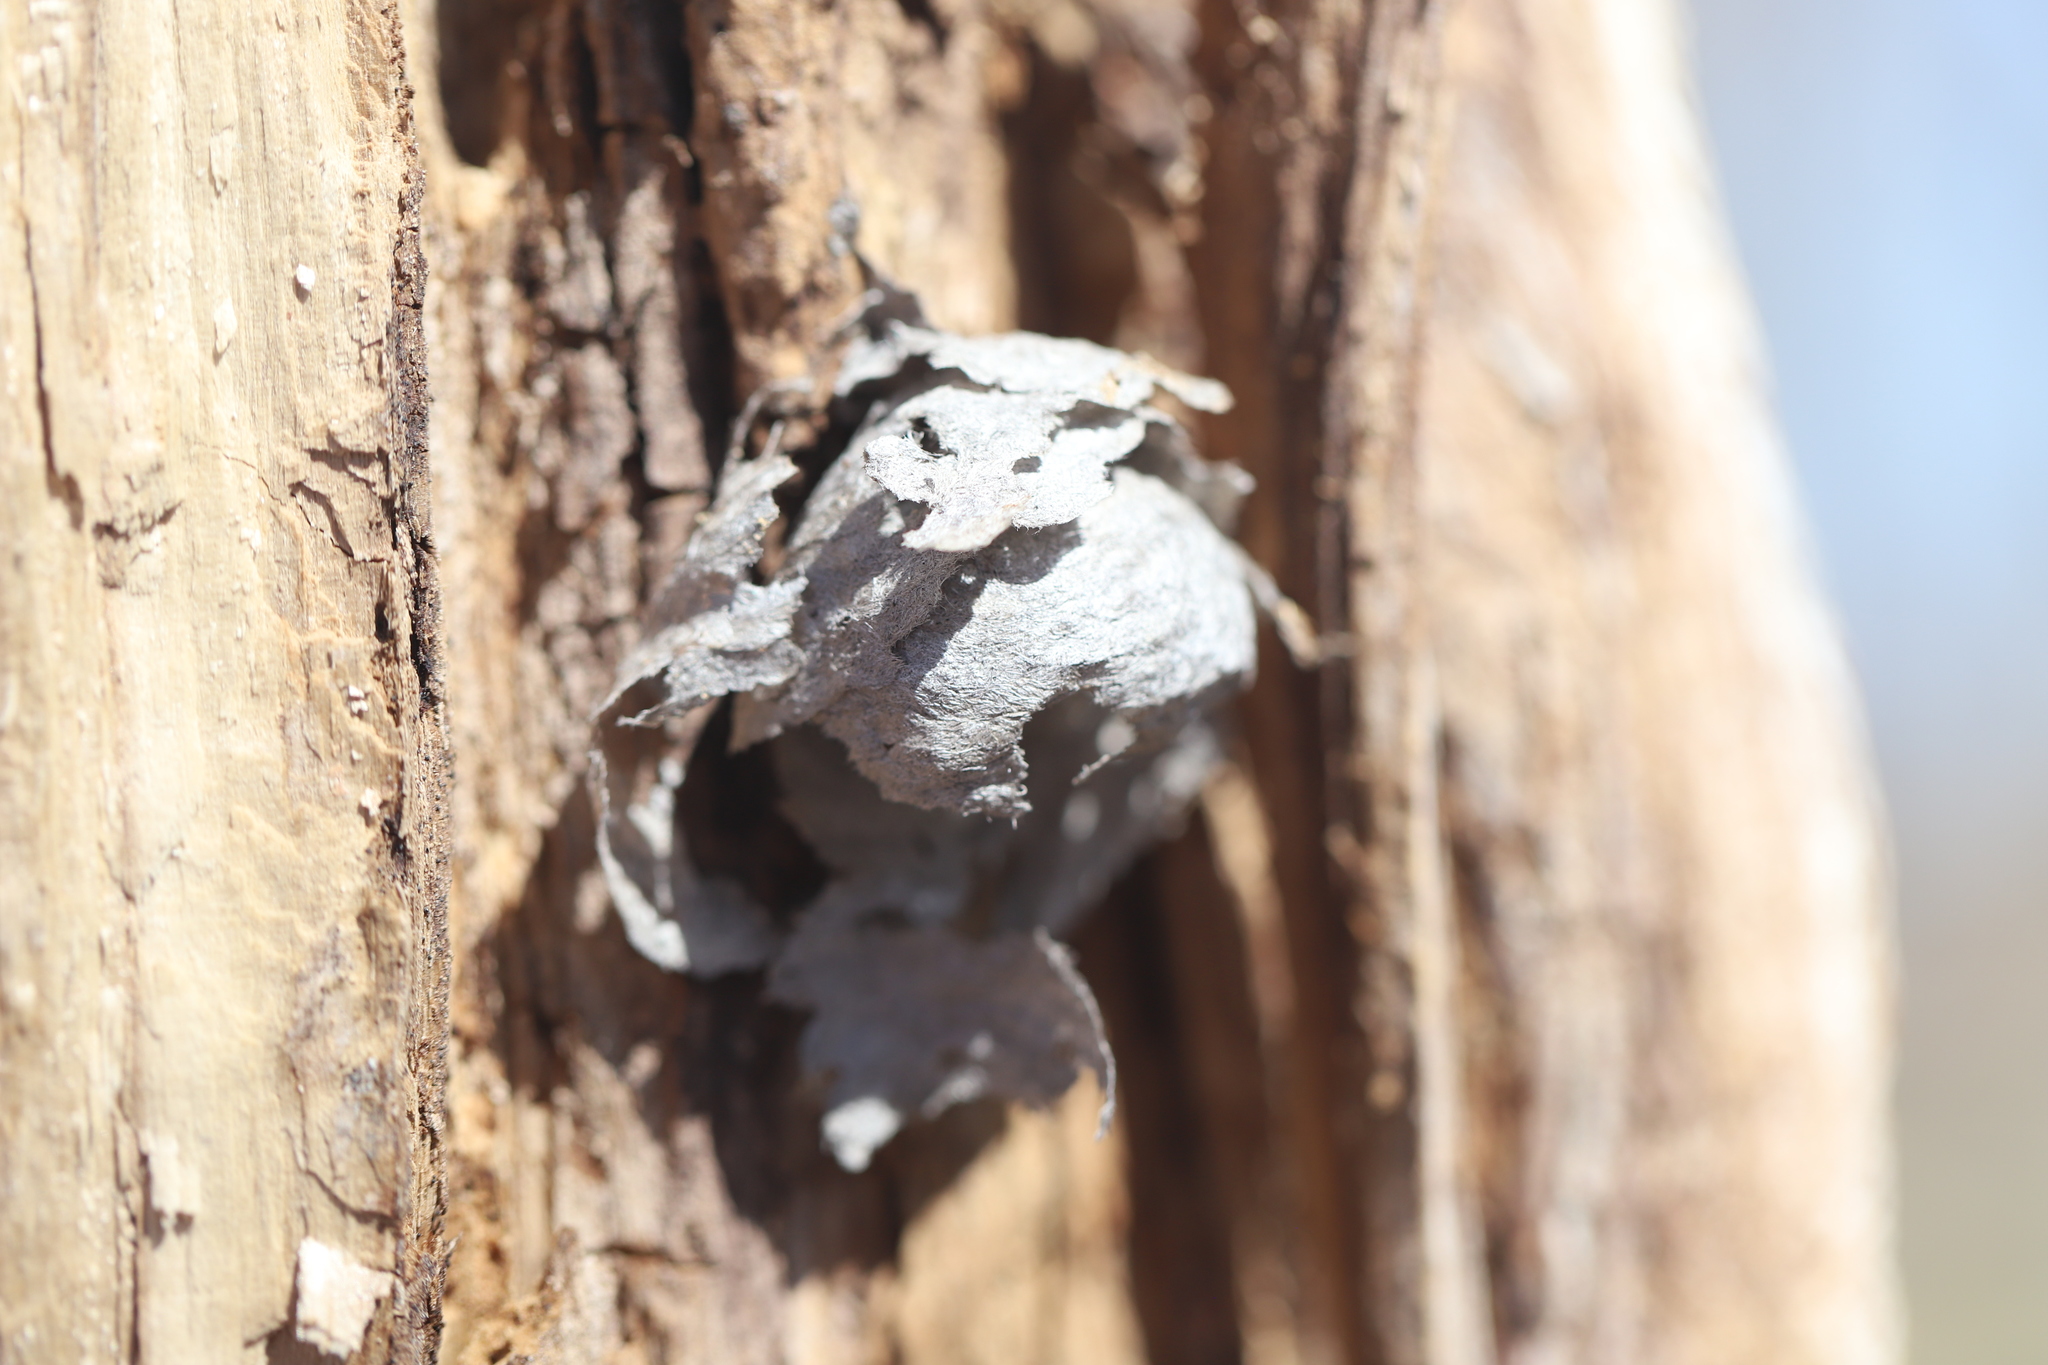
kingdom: Animalia
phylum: Arthropoda
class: Insecta
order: Hymenoptera
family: Vespidae
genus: Dolichovespula
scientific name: Dolichovespula
